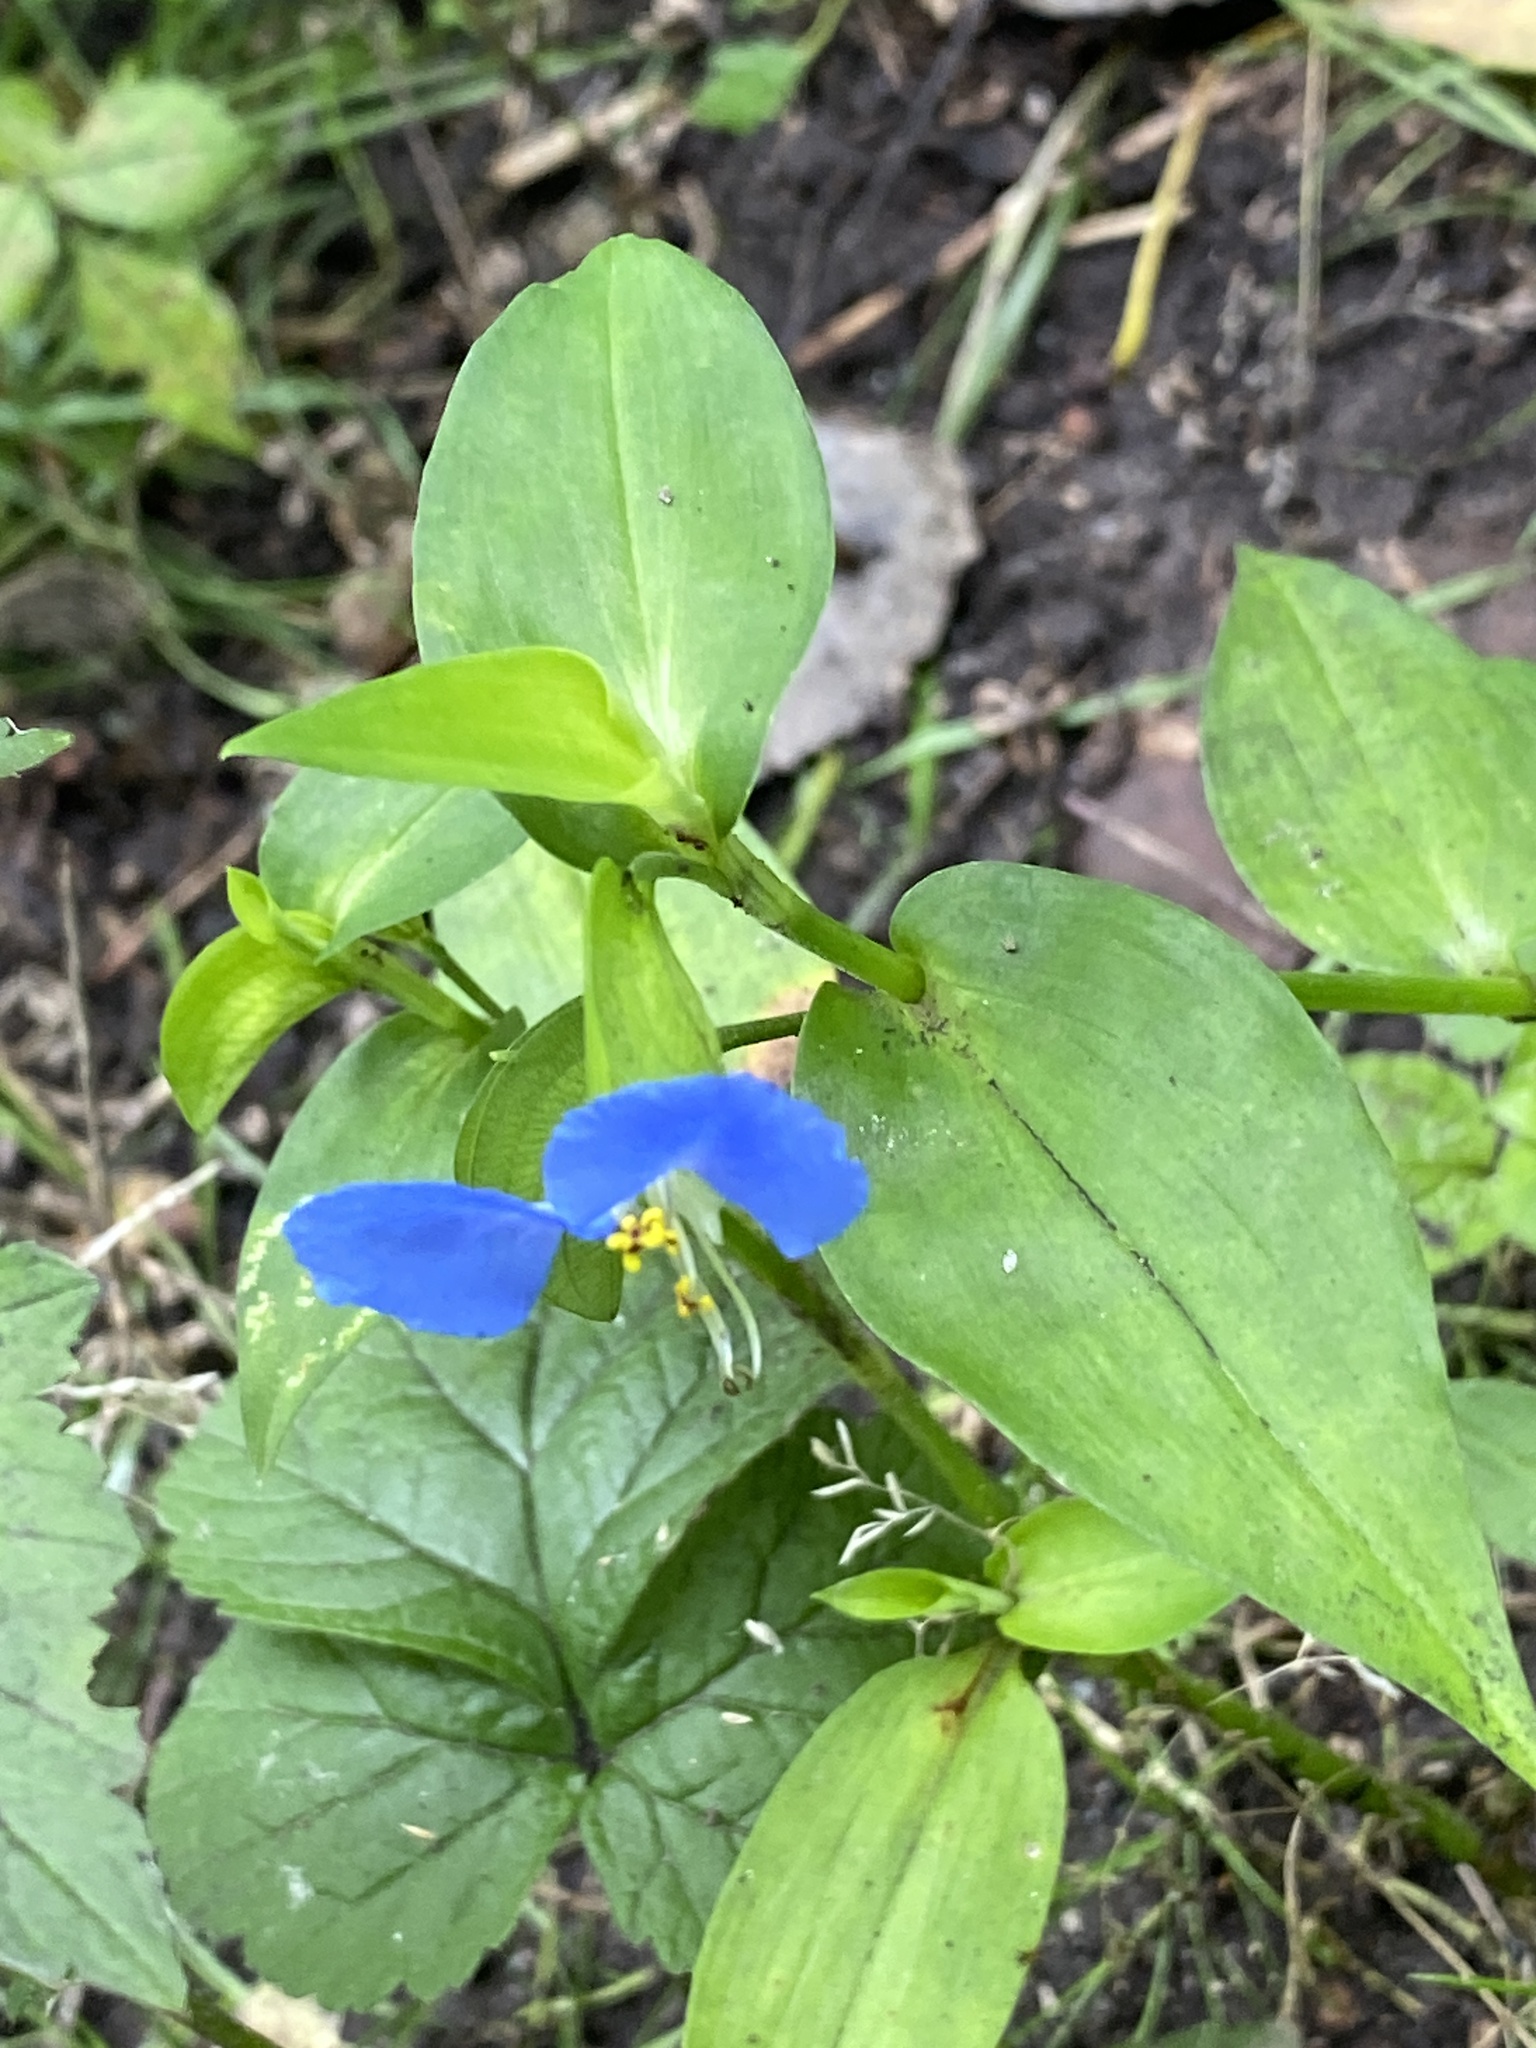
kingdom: Plantae
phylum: Tracheophyta
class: Liliopsida
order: Commelinales
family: Commelinaceae
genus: Commelina
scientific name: Commelina communis
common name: Asiatic dayflower
